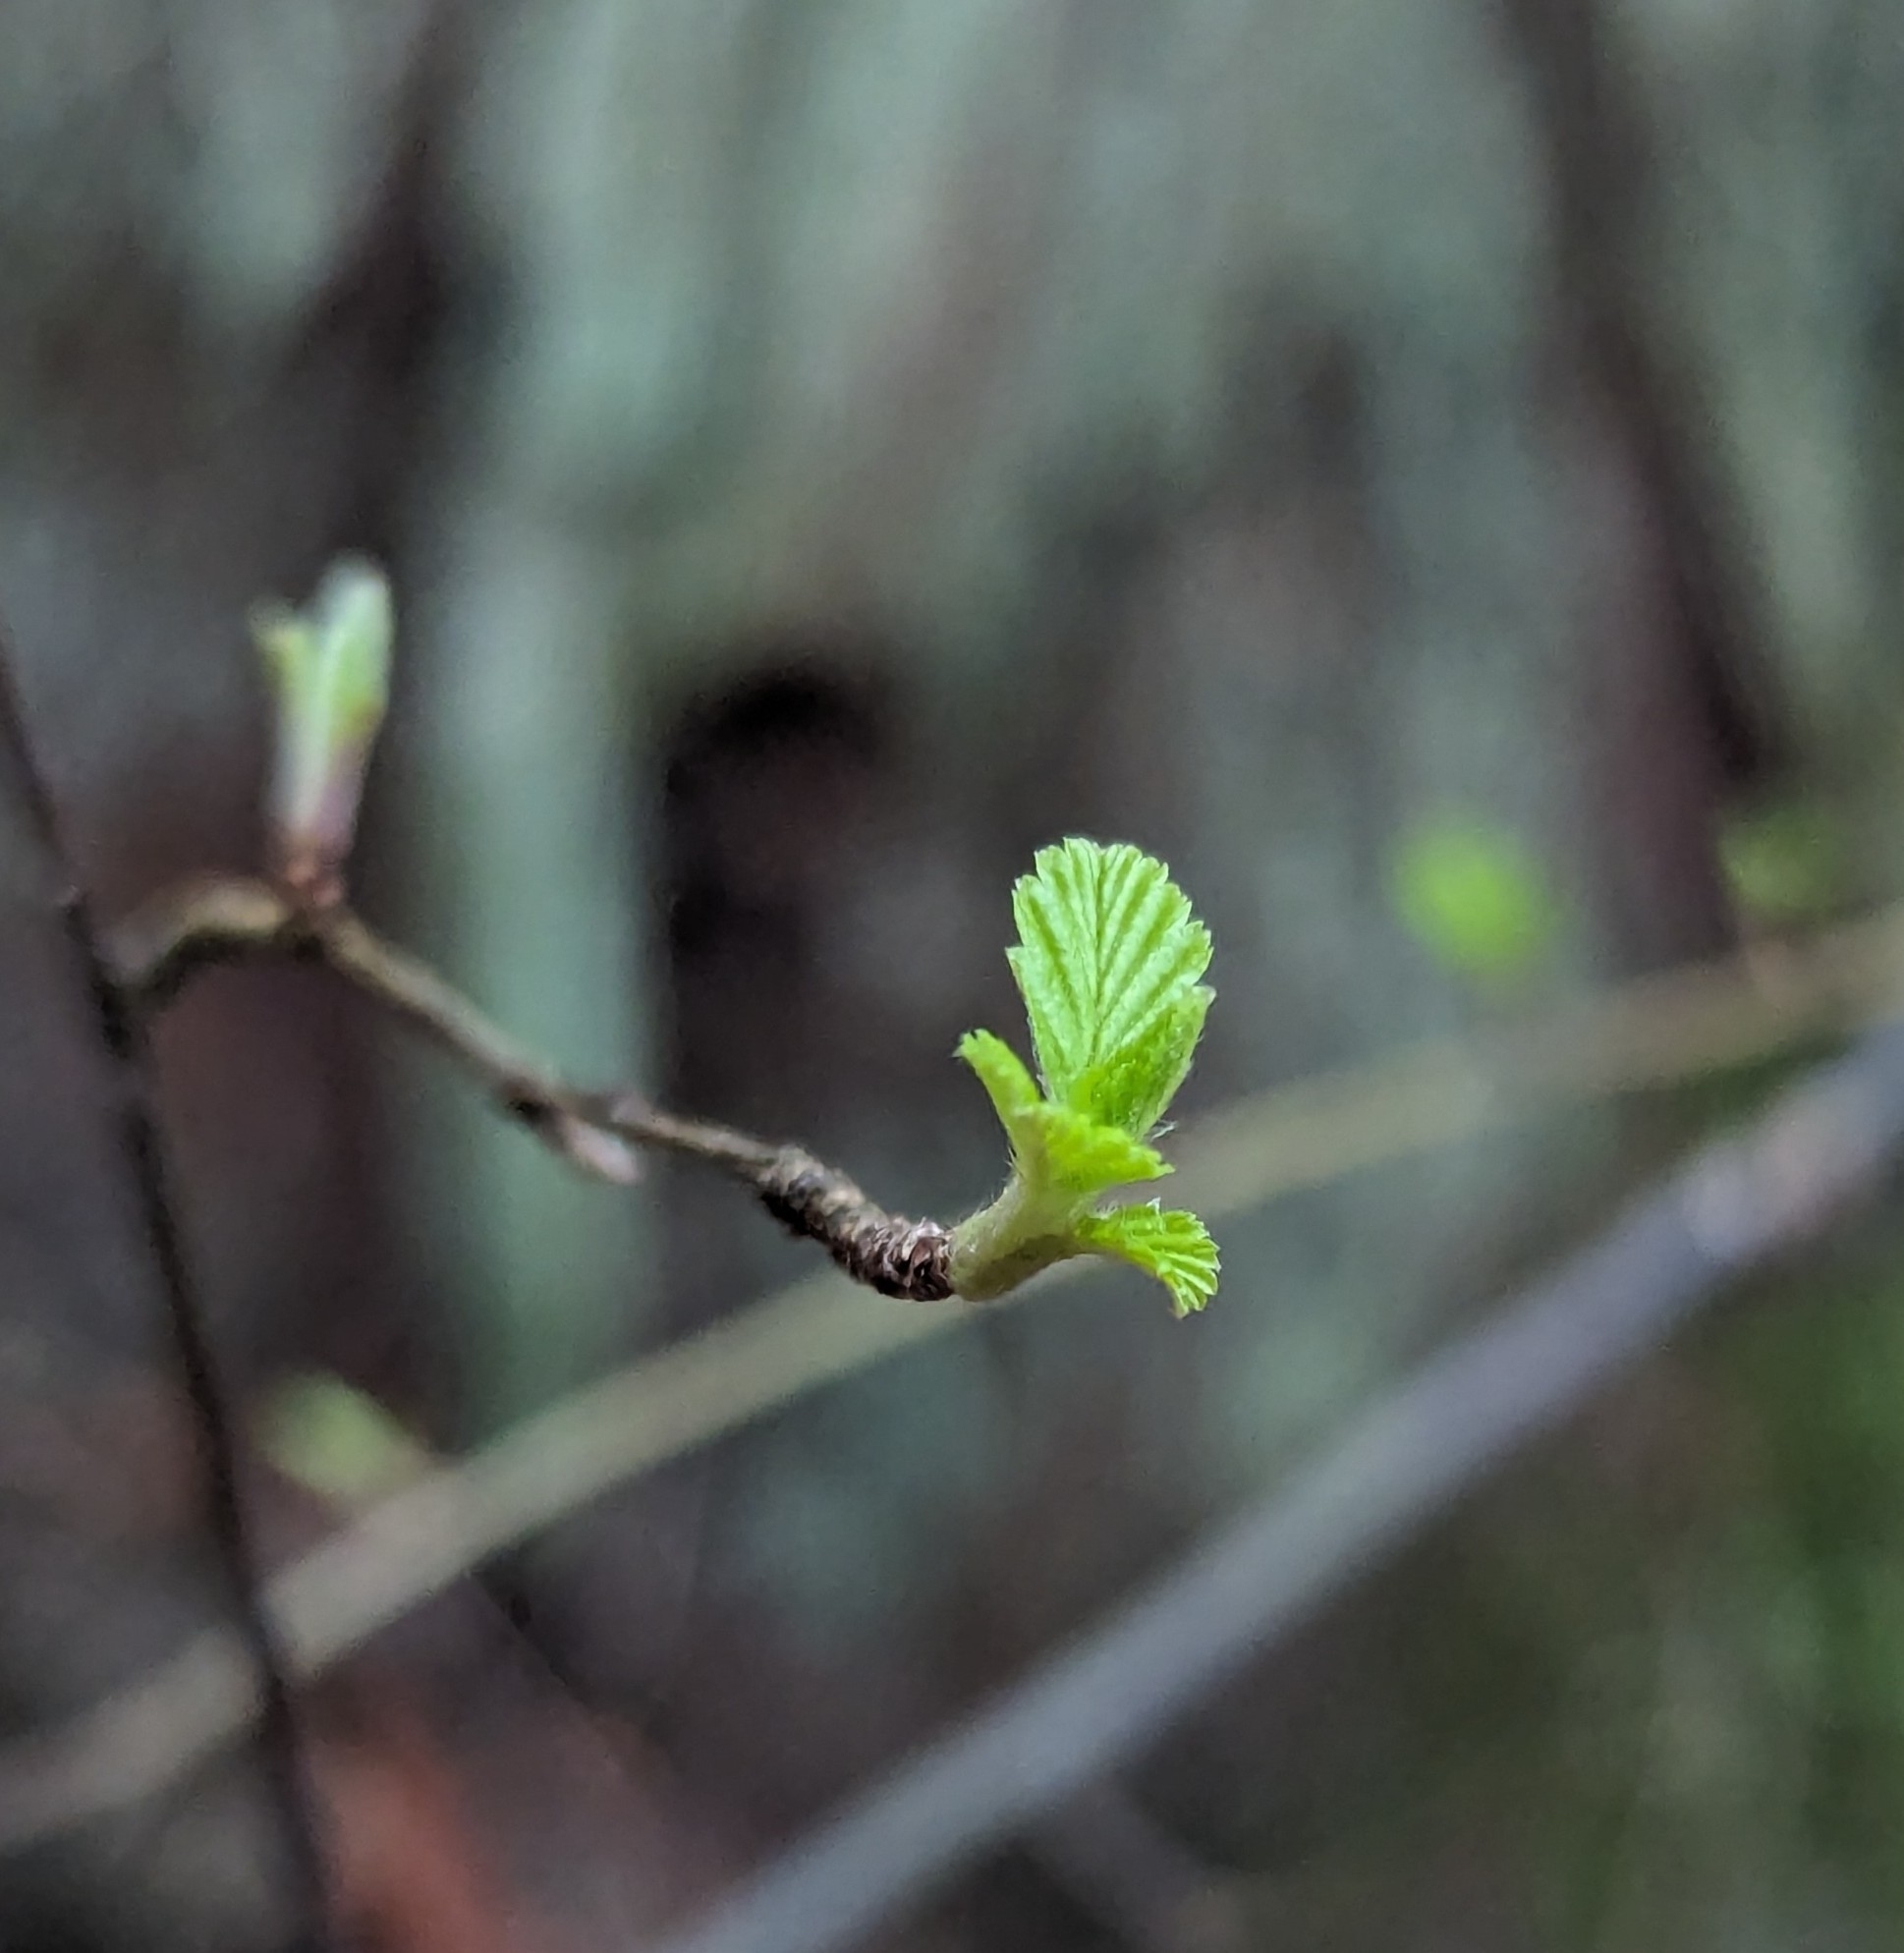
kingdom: Plantae
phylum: Tracheophyta
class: Magnoliopsida
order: Rosales
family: Rosaceae
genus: Holodiscus
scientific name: Holodiscus discolor
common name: Oceanspray
